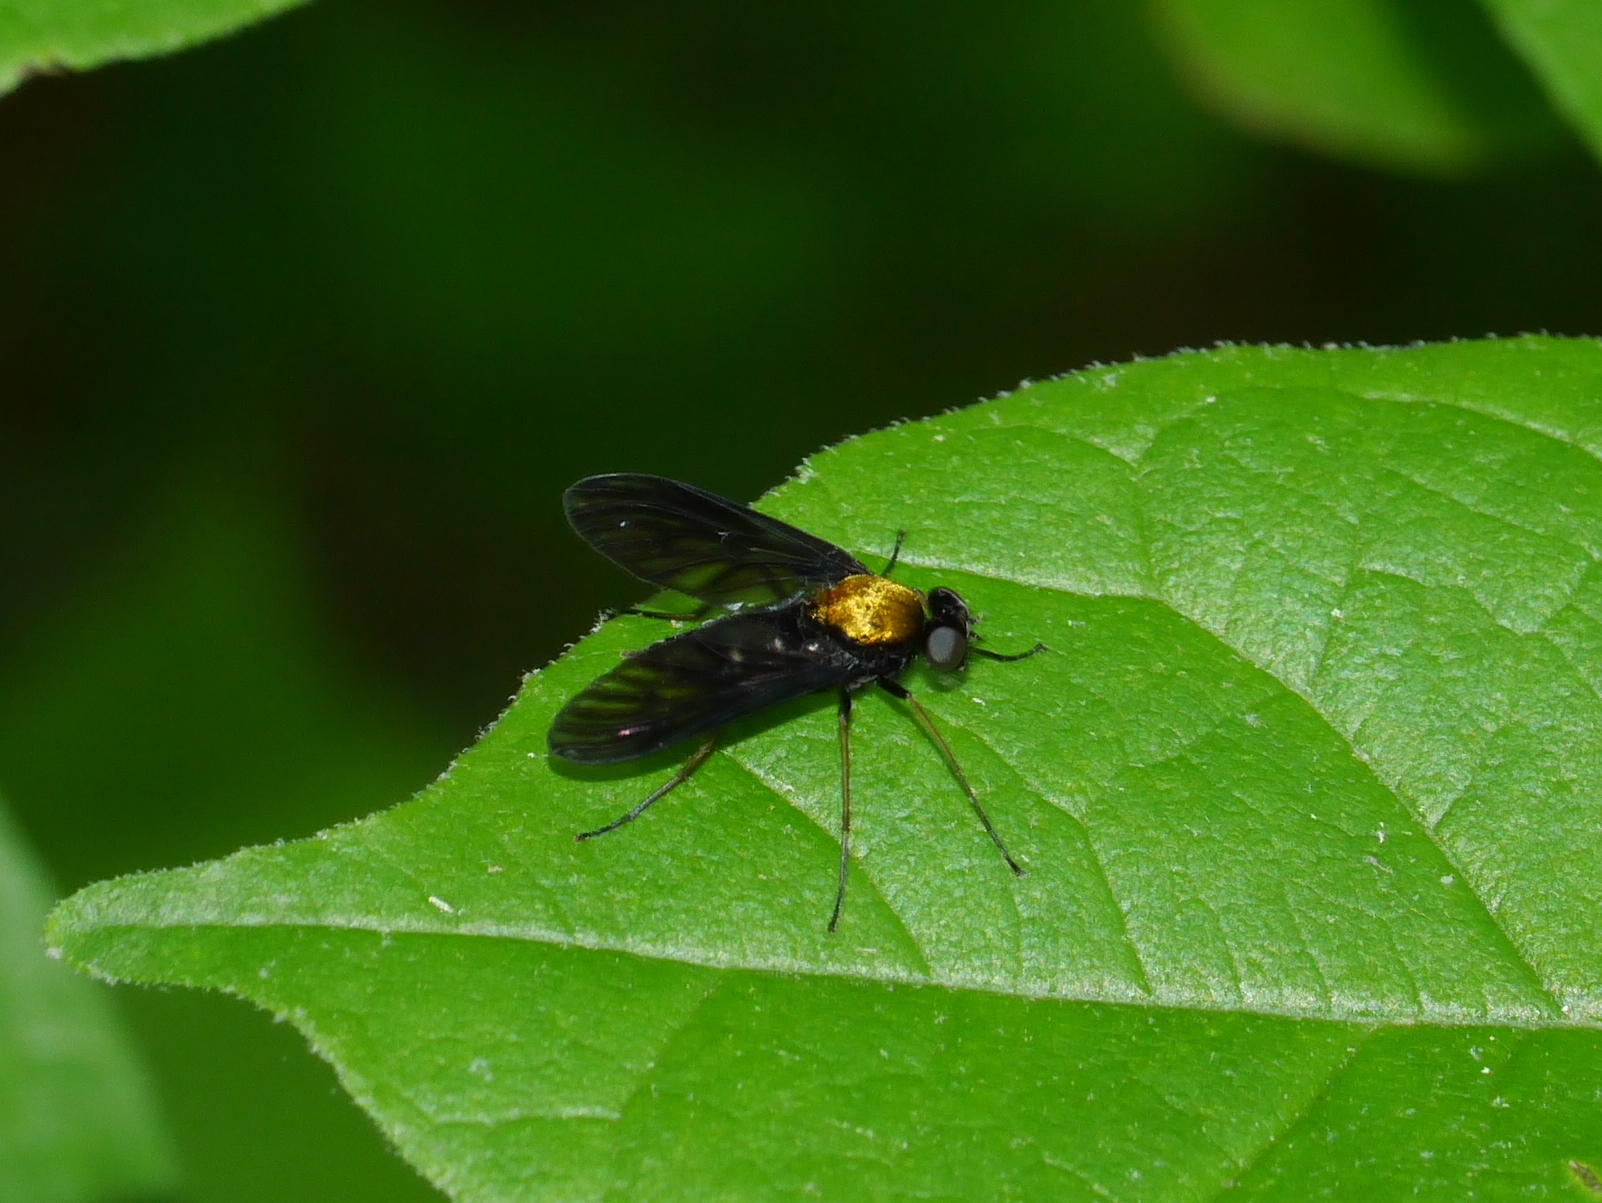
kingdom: Animalia
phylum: Arthropoda
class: Insecta
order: Diptera
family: Rhagionidae
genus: Chrysopilus
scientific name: Chrysopilus thoracicus
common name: Golden-backed snipe fly
